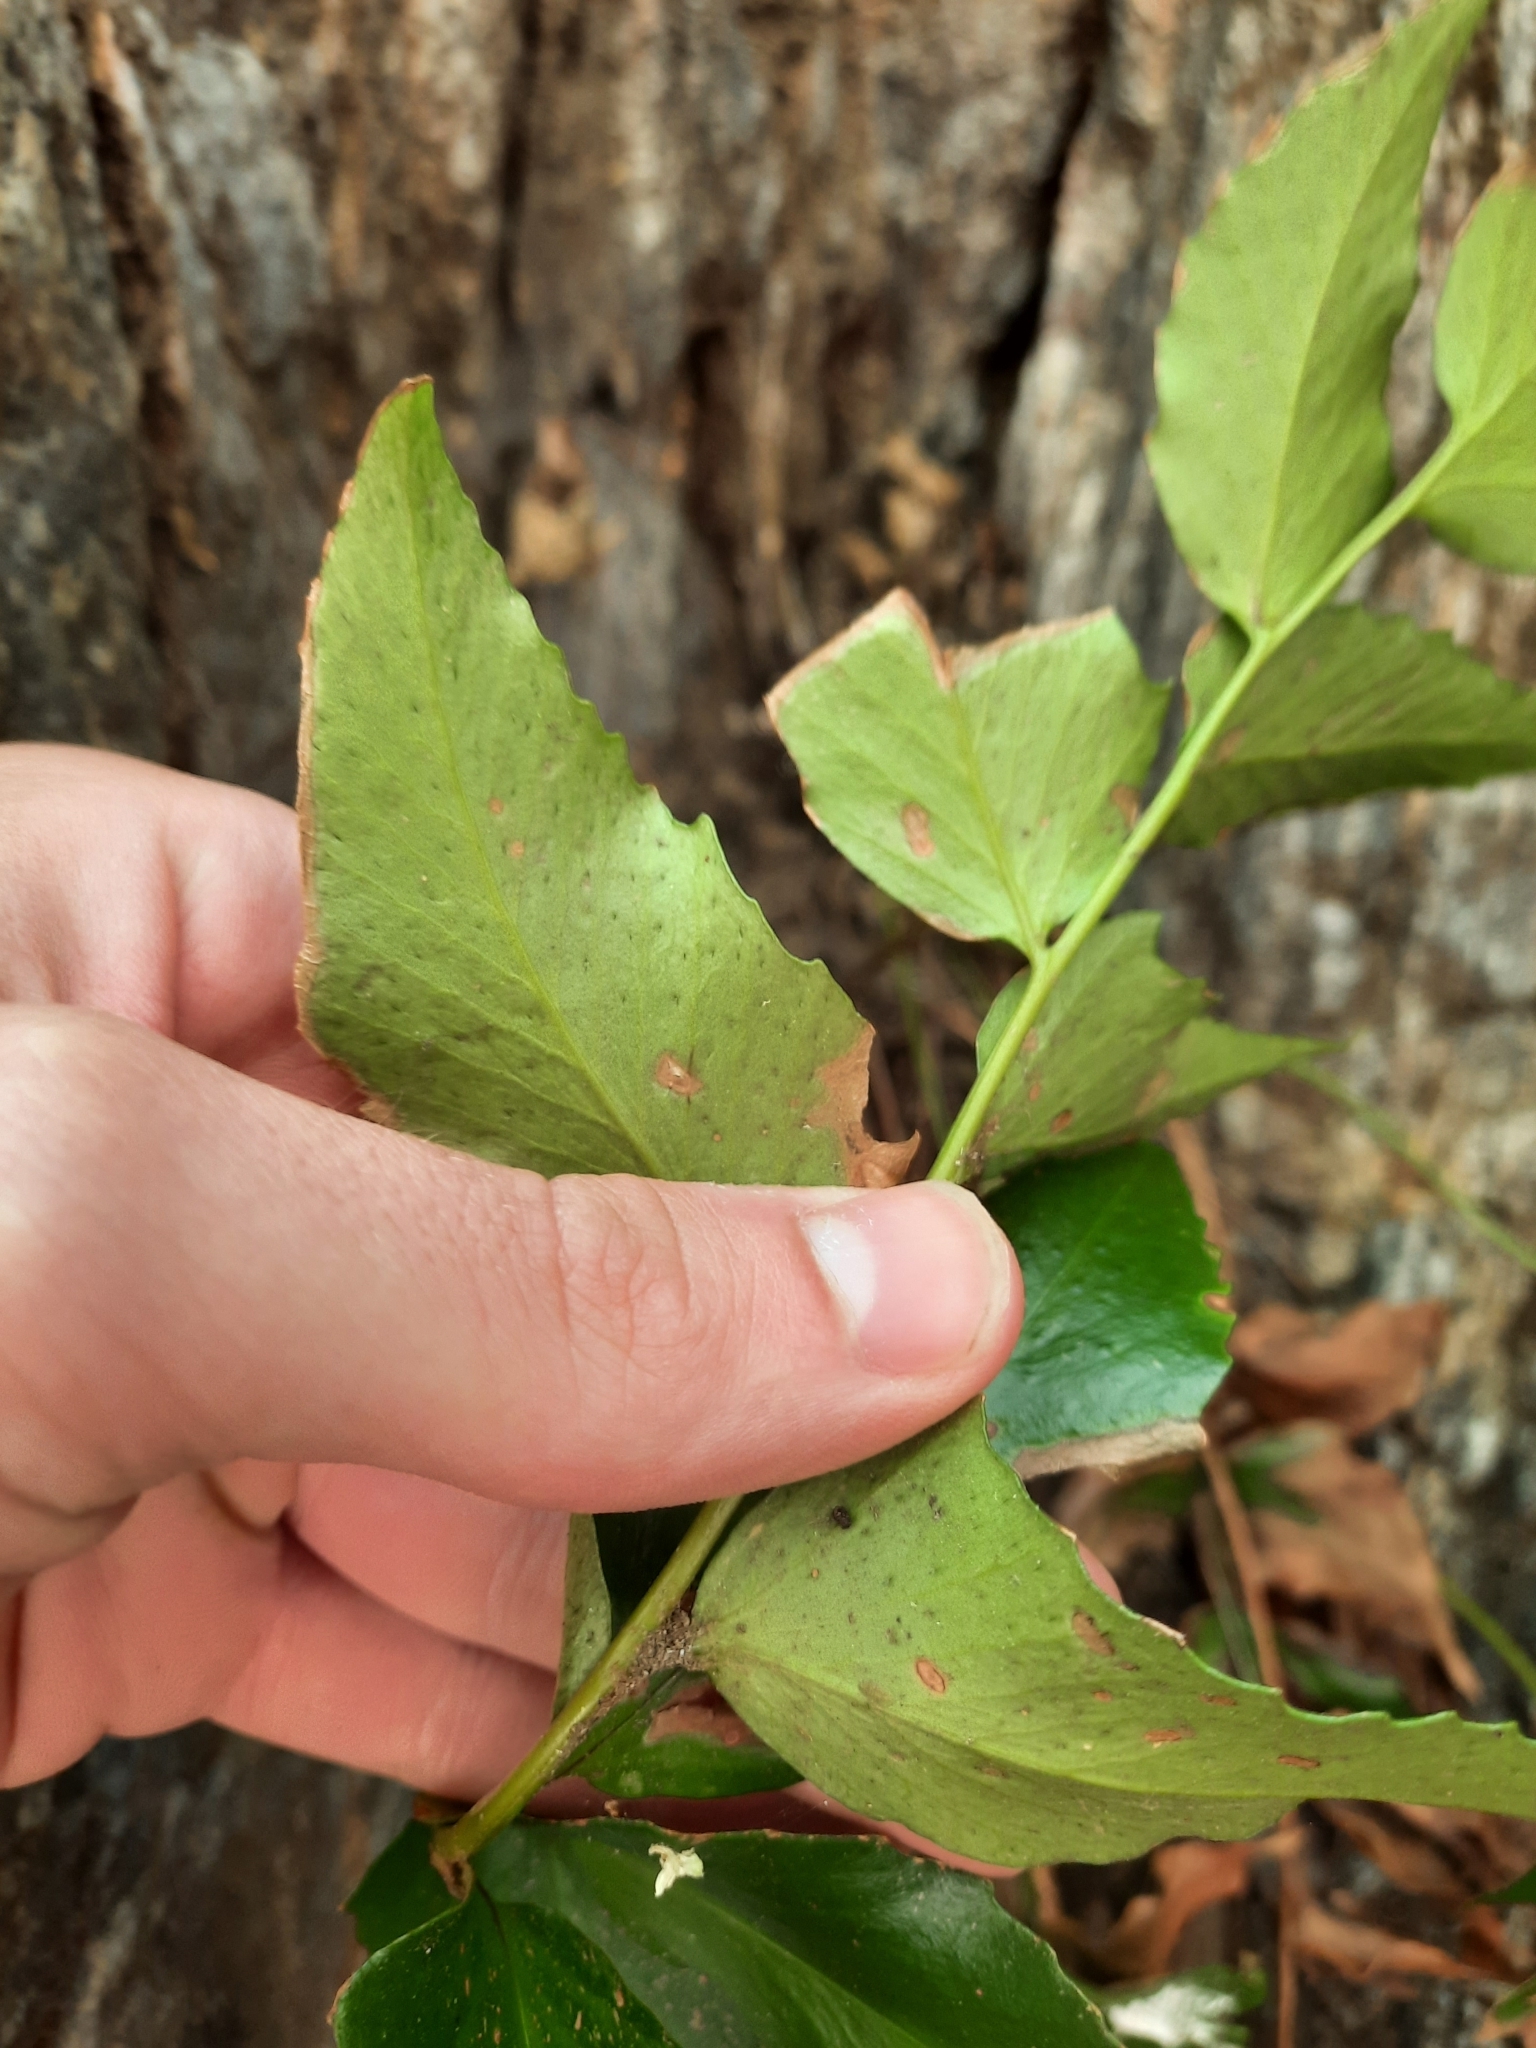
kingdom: Plantae
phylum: Tracheophyta
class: Polypodiopsida
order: Polypodiales
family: Dryopteridaceae
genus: Cyrtomium
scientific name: Cyrtomium falcatum
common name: House holly-fern
